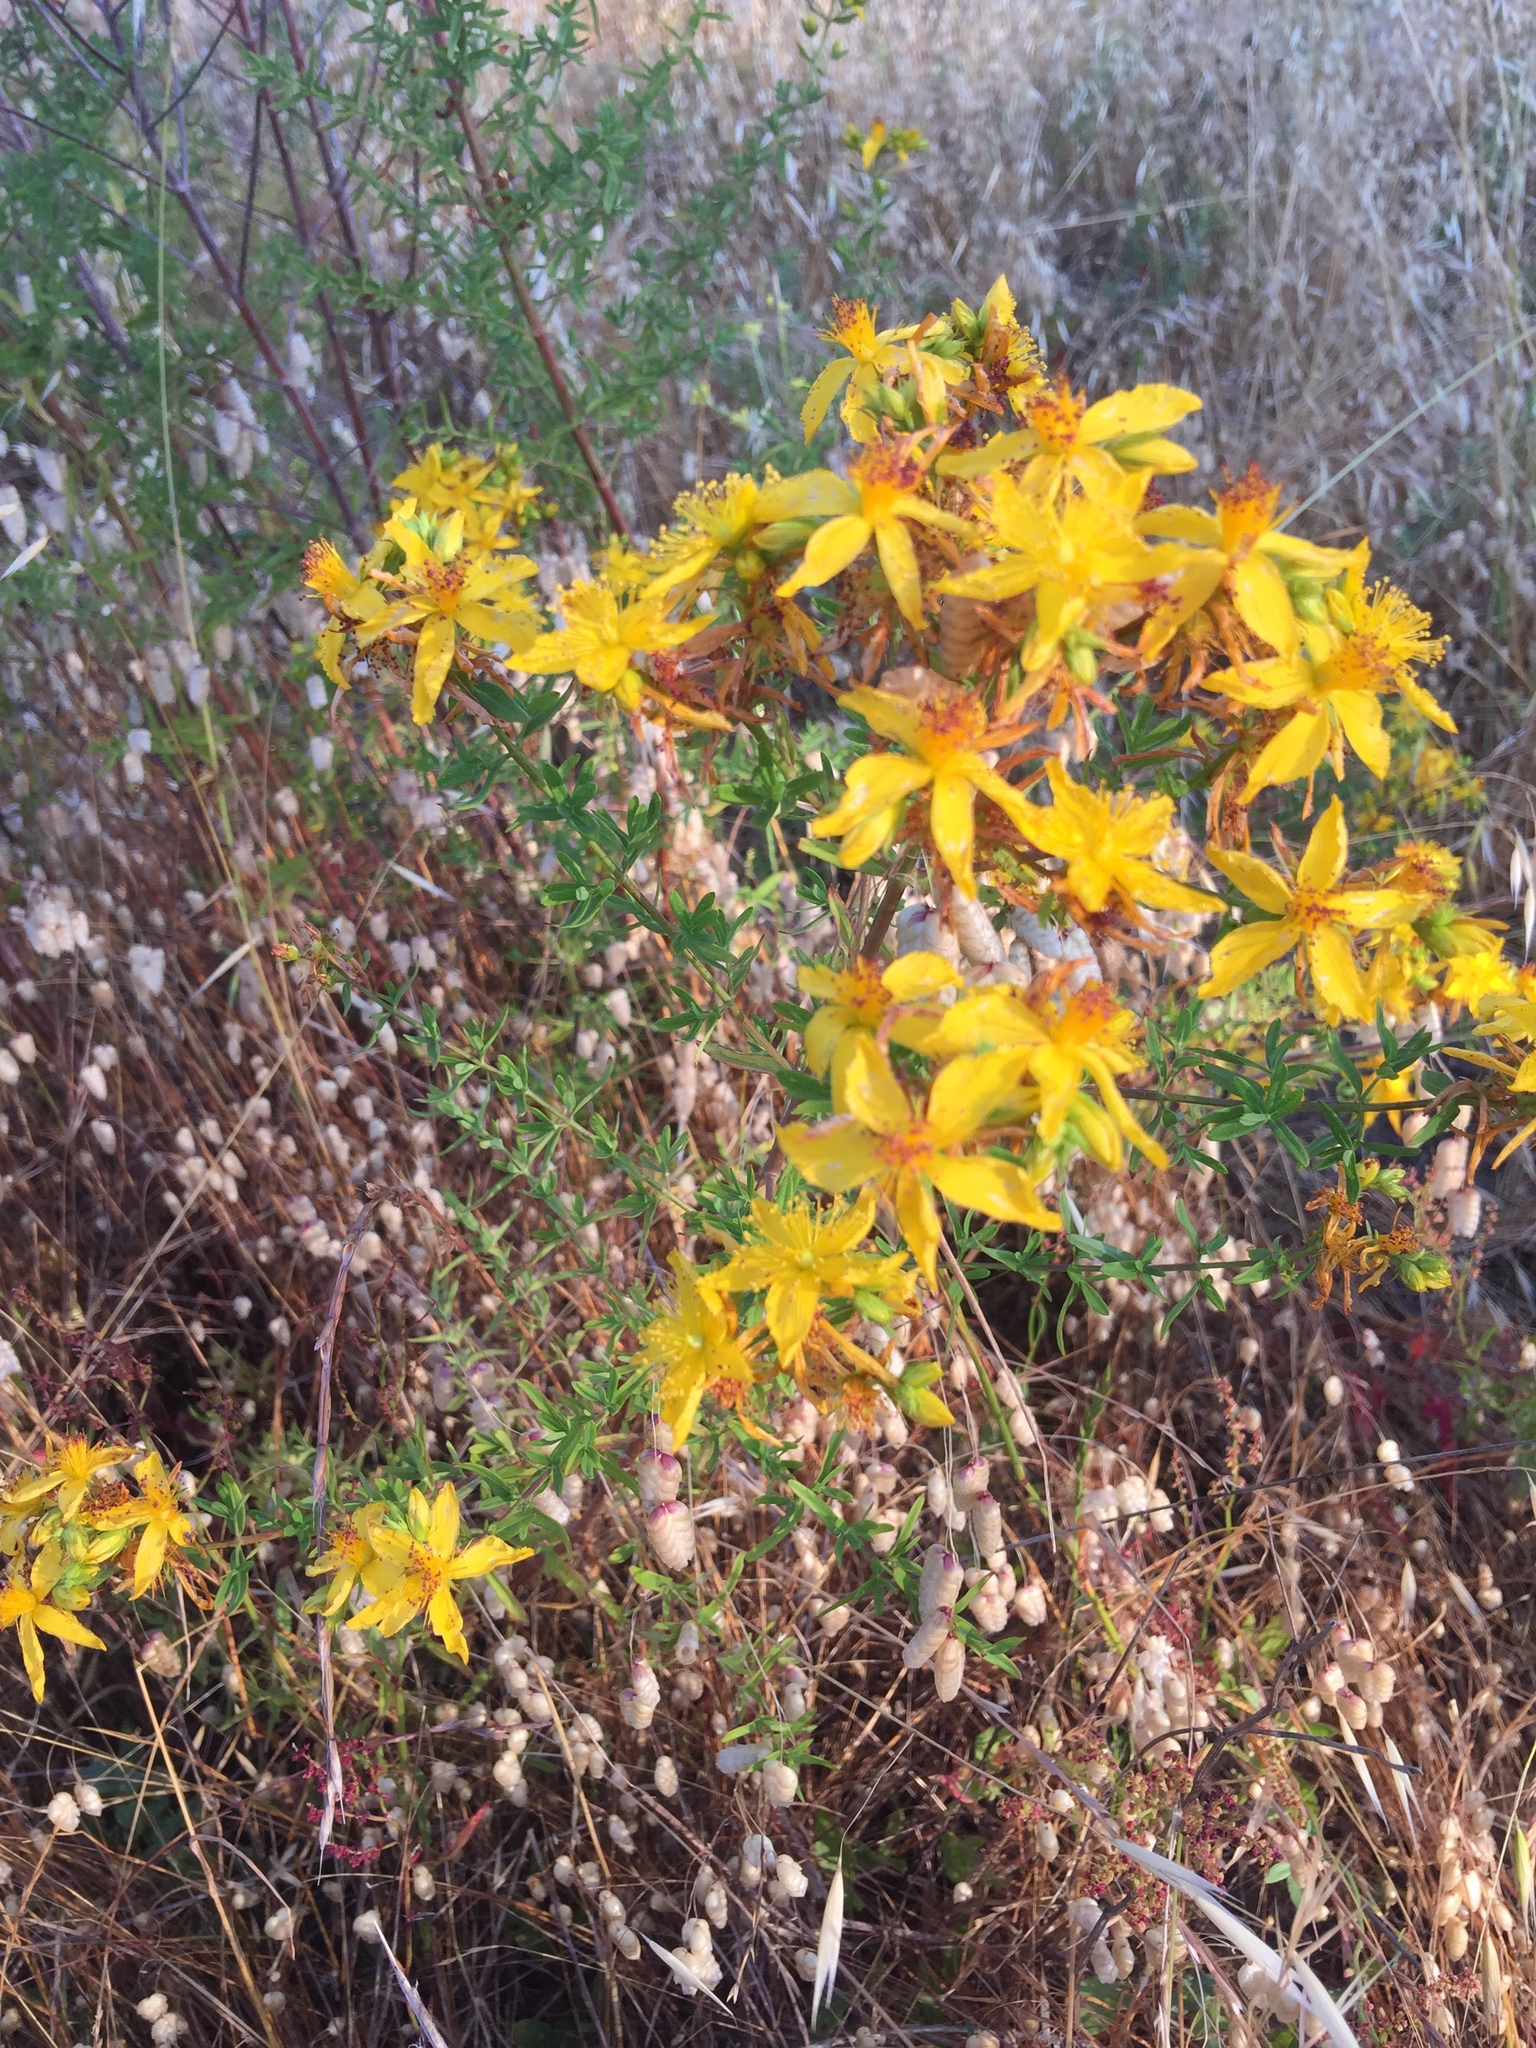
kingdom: Plantae
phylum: Tracheophyta
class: Magnoliopsida
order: Malpighiales
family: Hypericaceae
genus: Hypericum
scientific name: Hypericum perforatum
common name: Common st. johnswort
